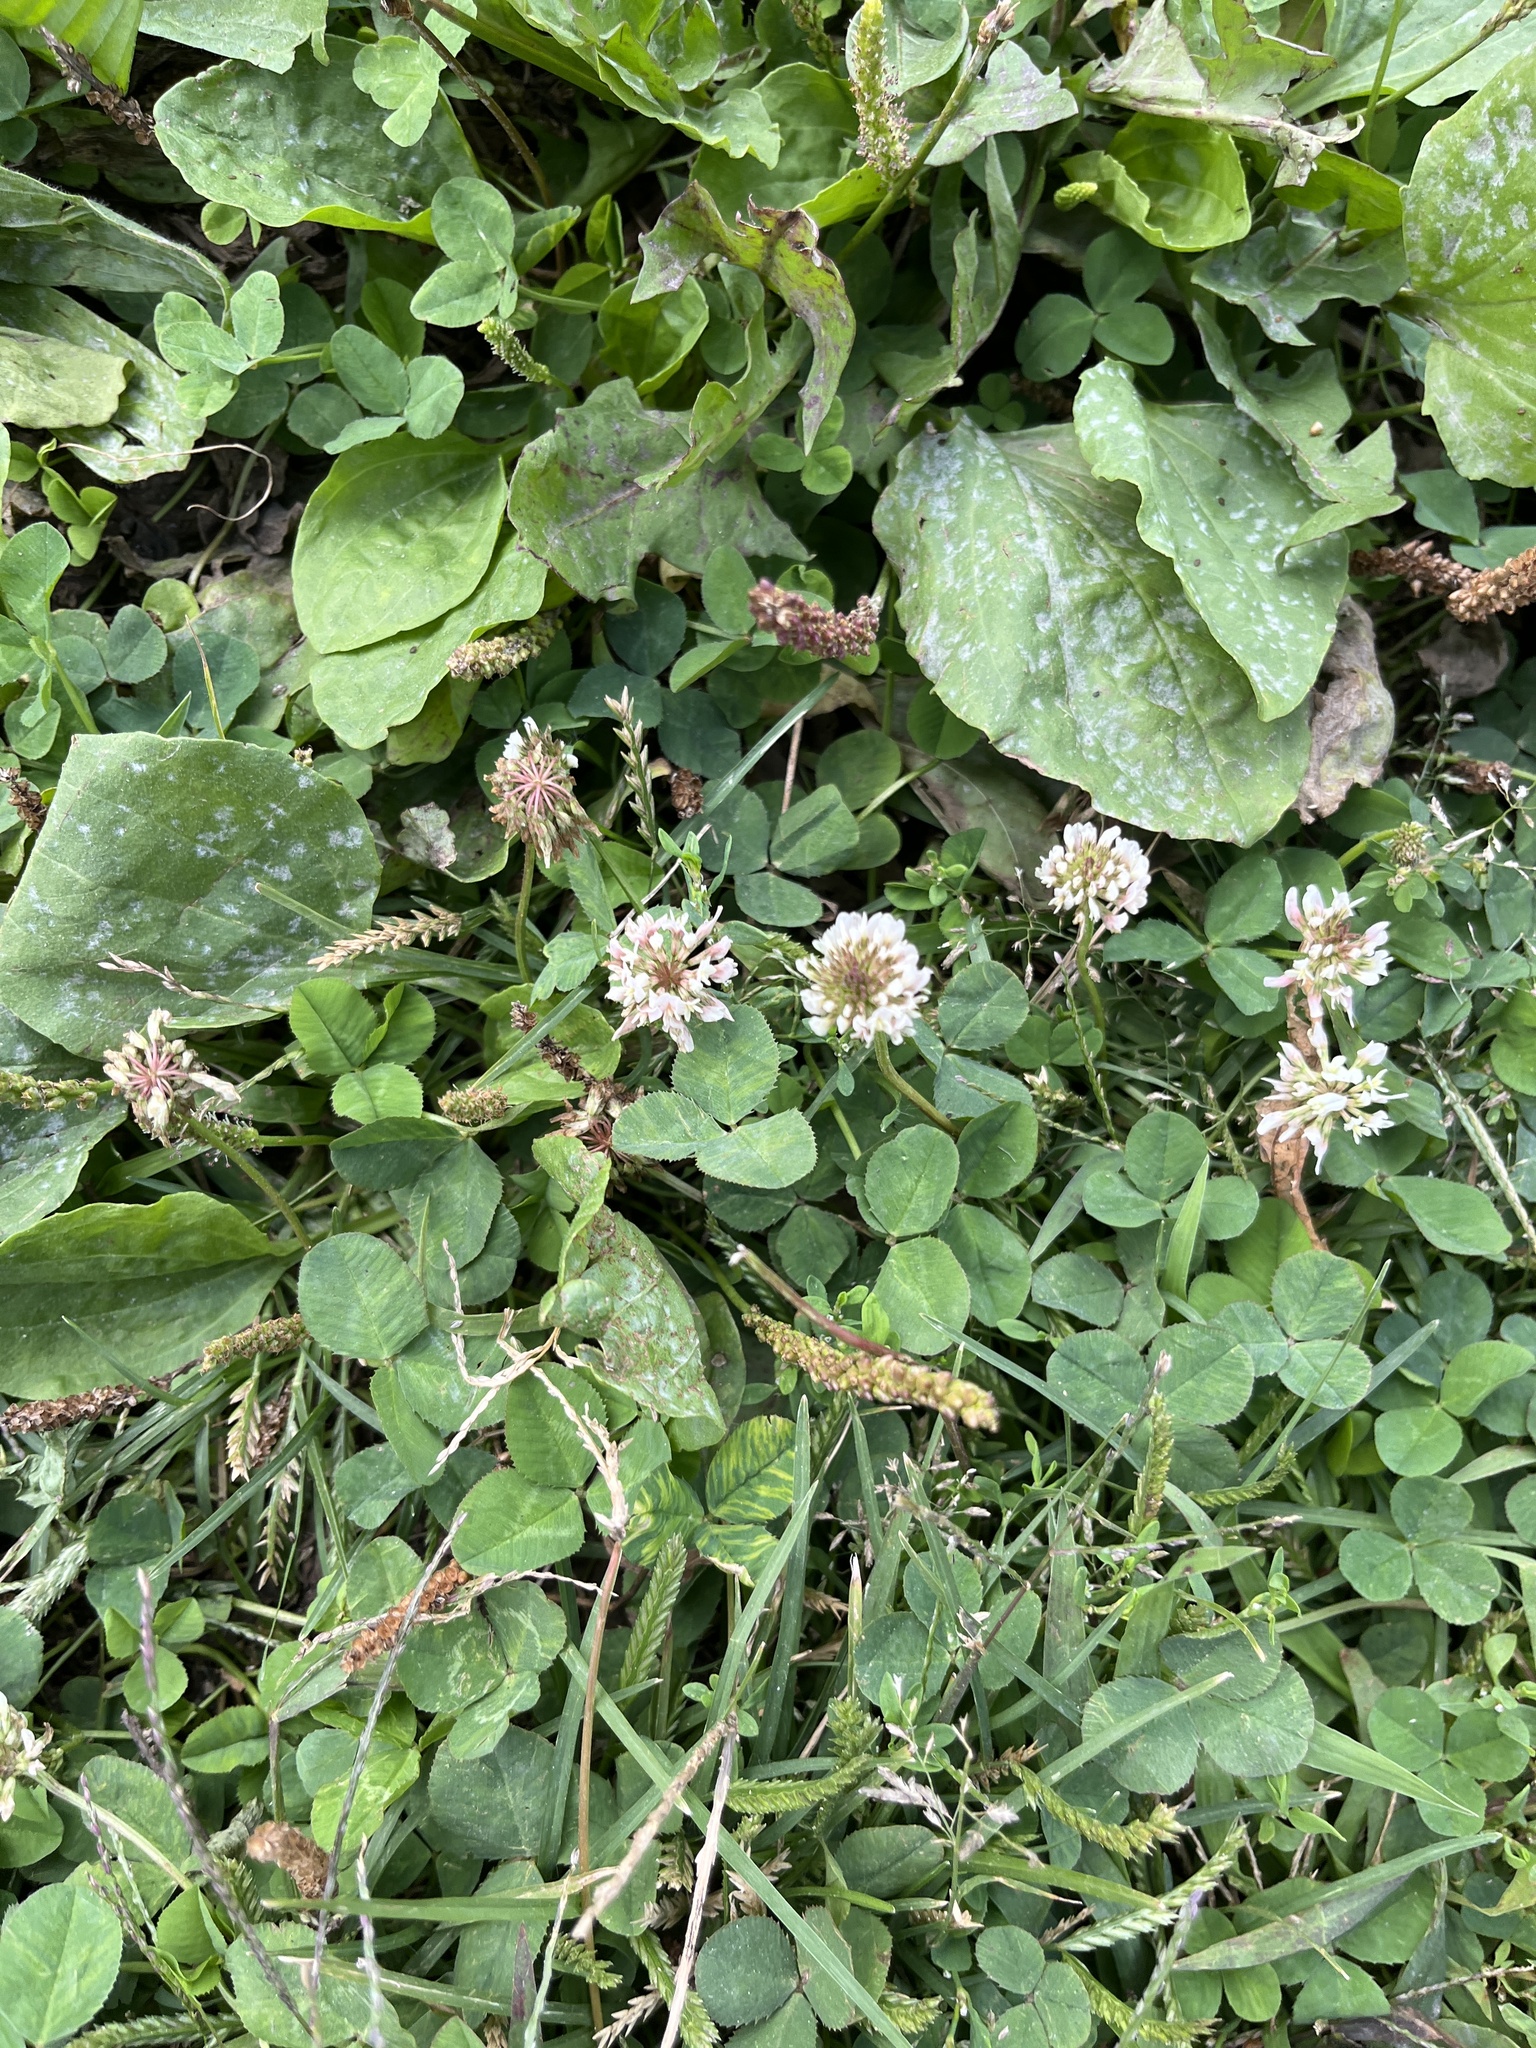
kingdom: Plantae
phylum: Tracheophyta
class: Magnoliopsida
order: Fabales
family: Fabaceae
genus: Trifolium
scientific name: Trifolium repens
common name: White clover
